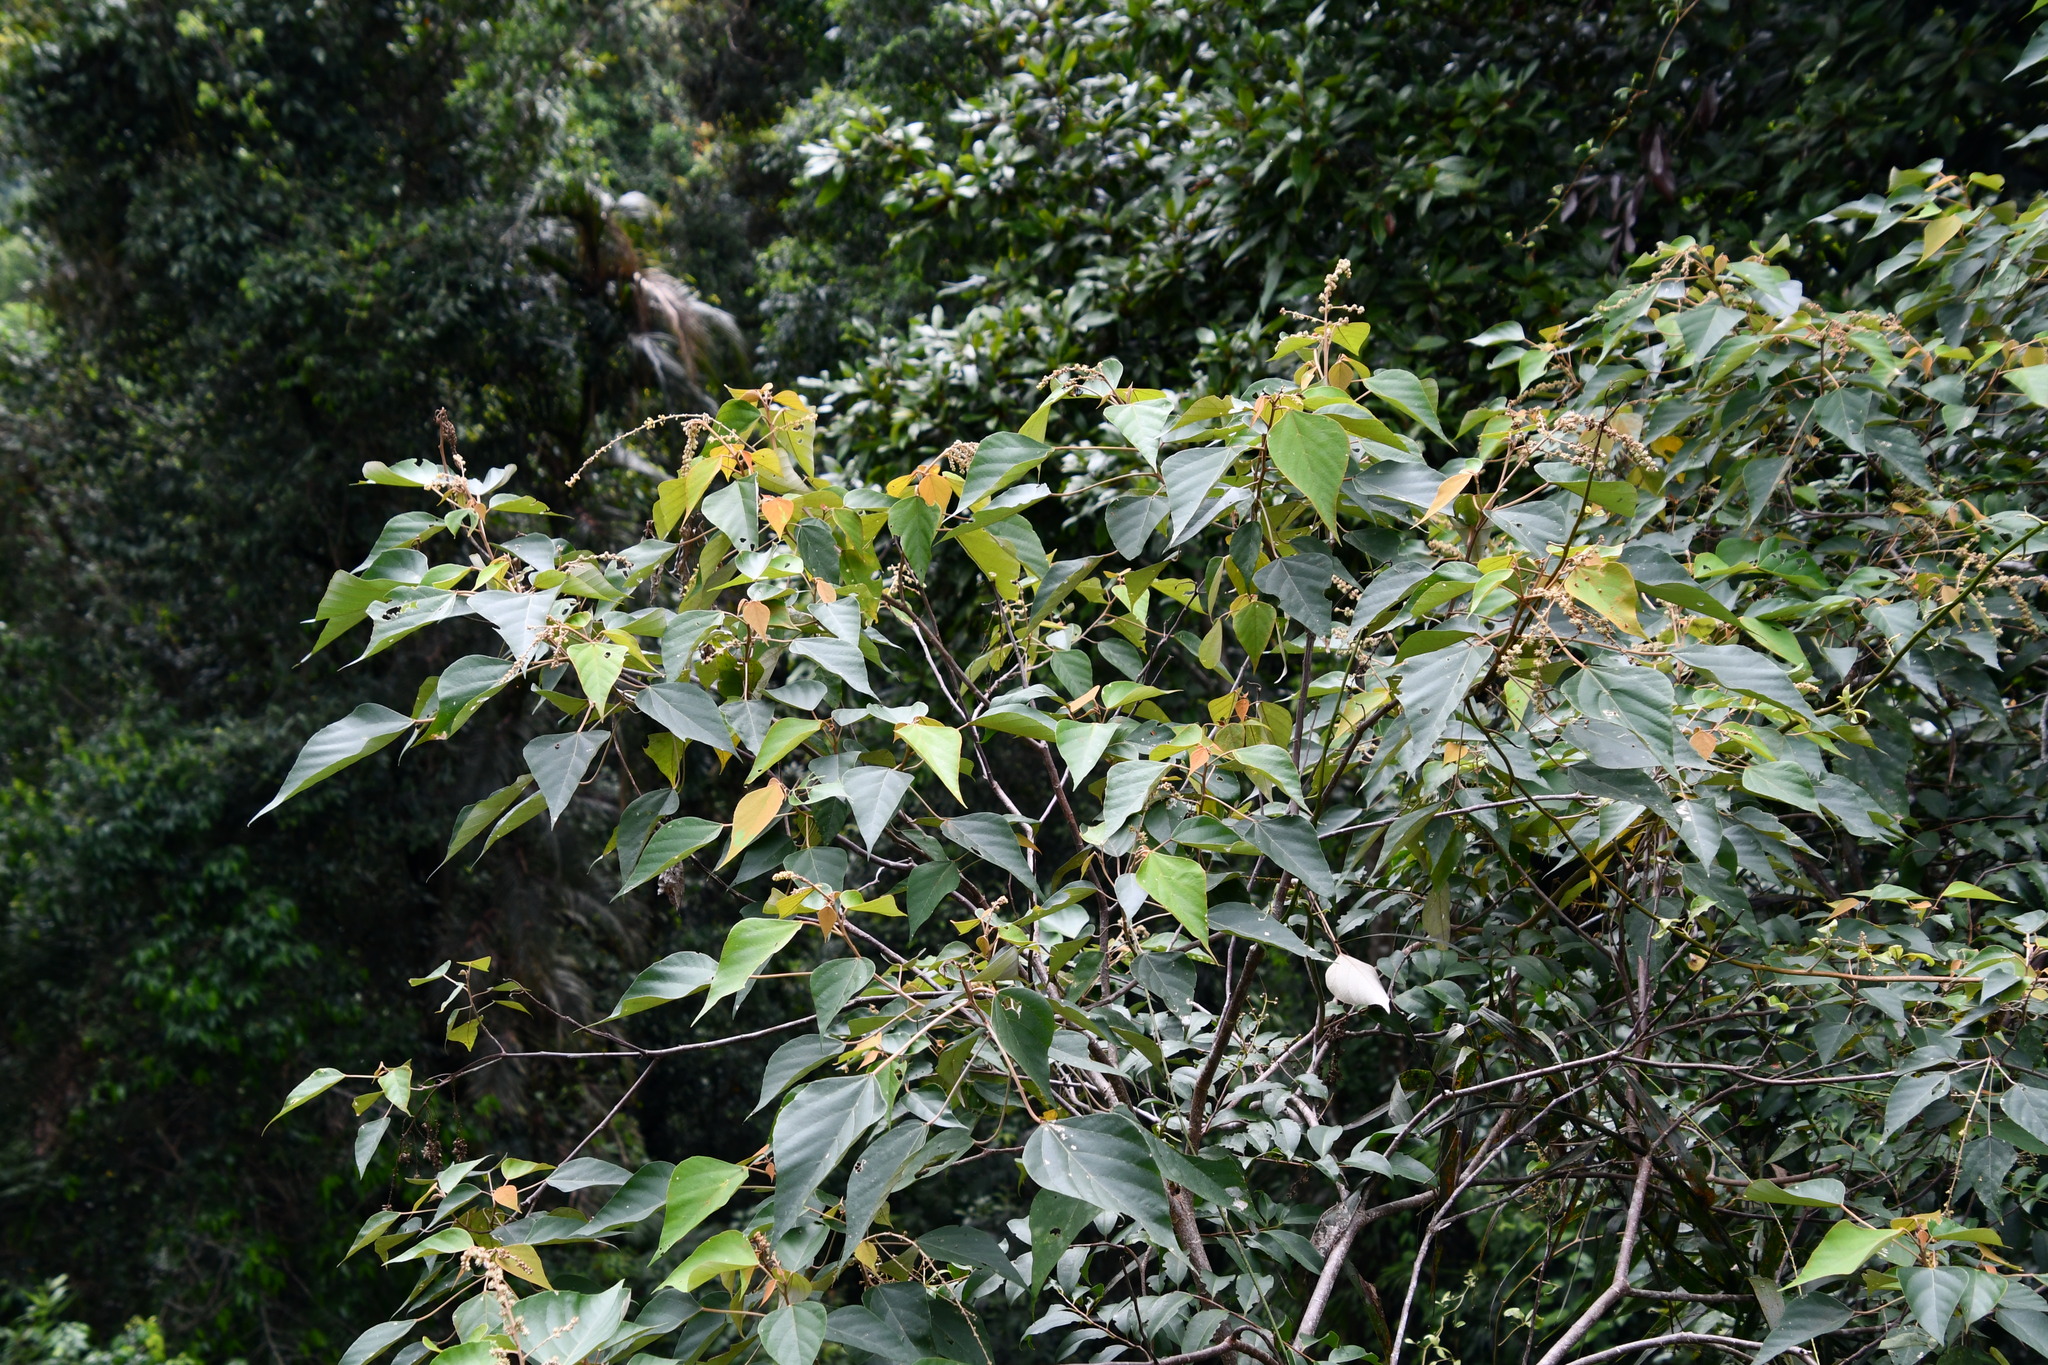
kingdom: Plantae
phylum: Tracheophyta
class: Magnoliopsida
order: Malpighiales
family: Euphorbiaceae
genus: Mallotus
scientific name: Mallotus paniculatus
